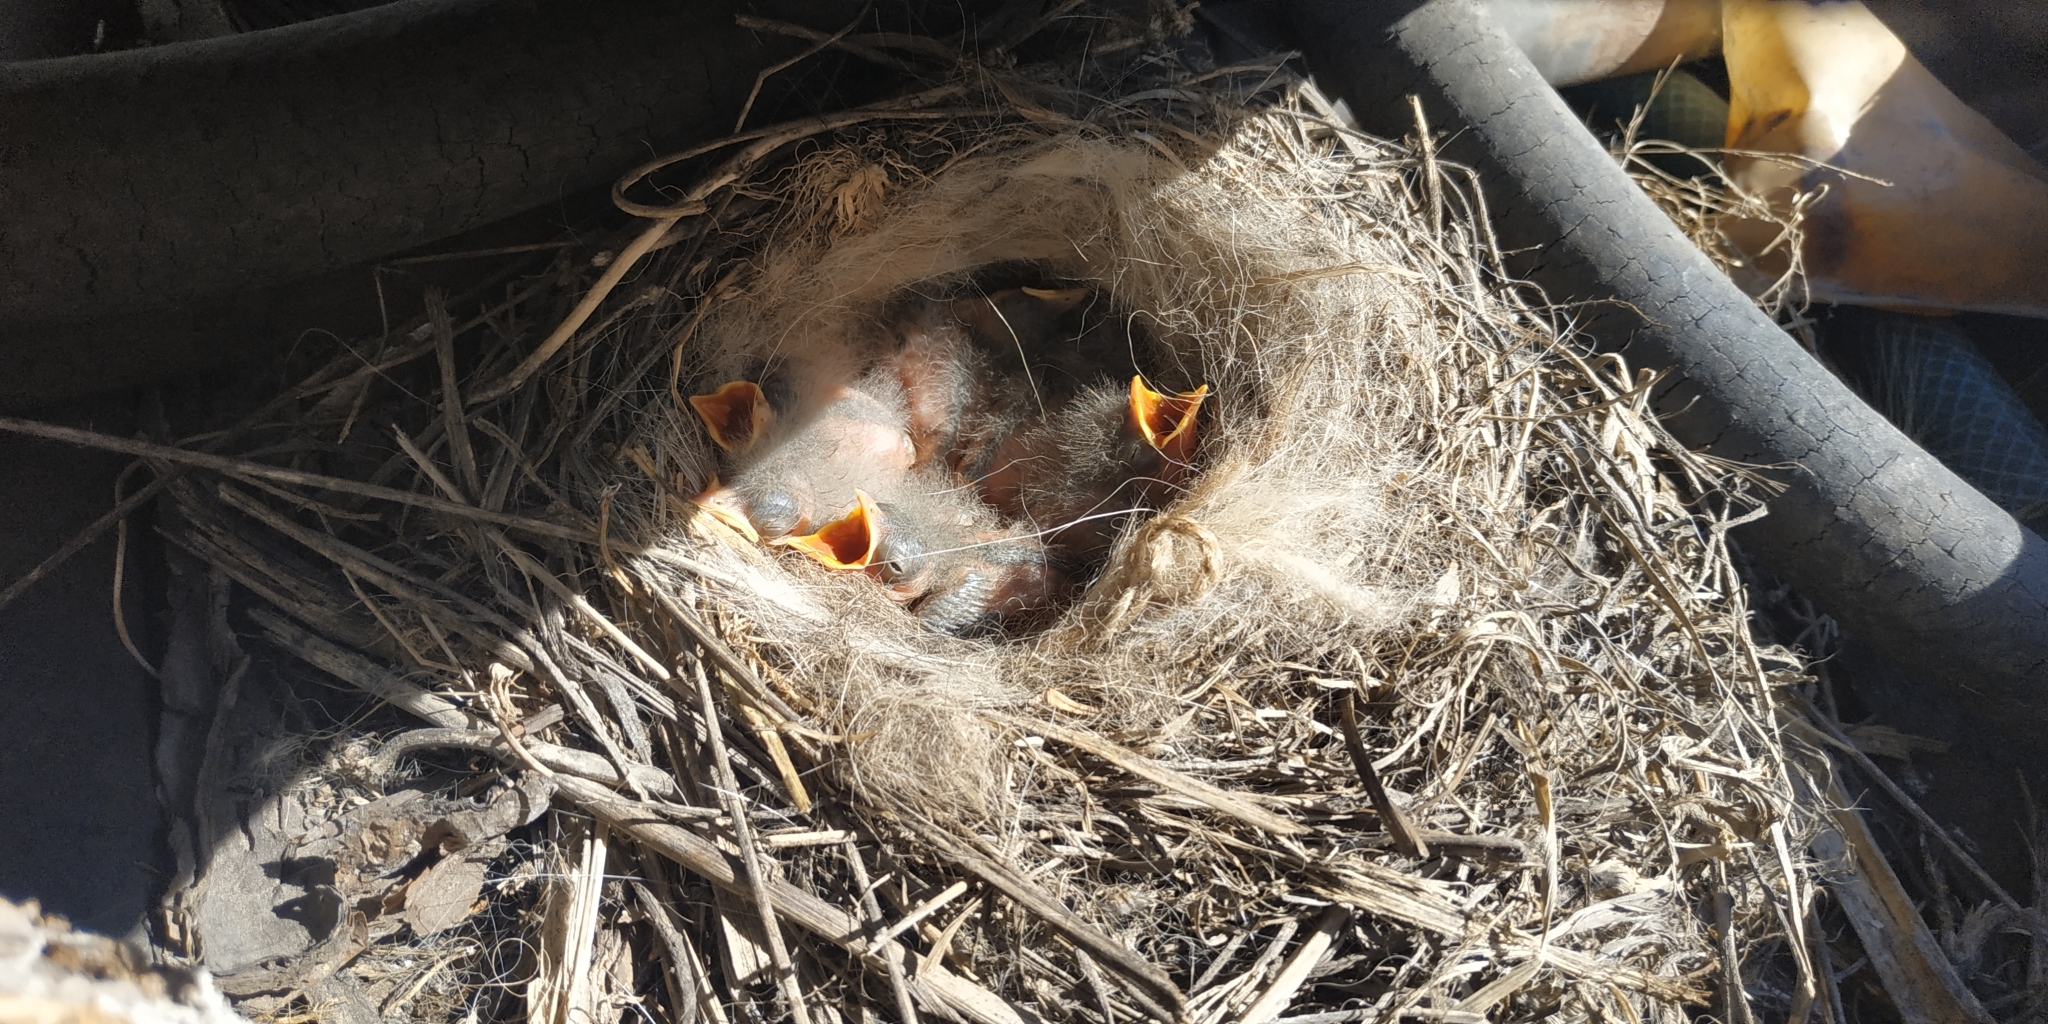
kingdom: Animalia
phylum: Chordata
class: Aves
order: Passeriformes
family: Motacillidae
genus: Motacilla
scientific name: Motacilla alba
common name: White wagtail
